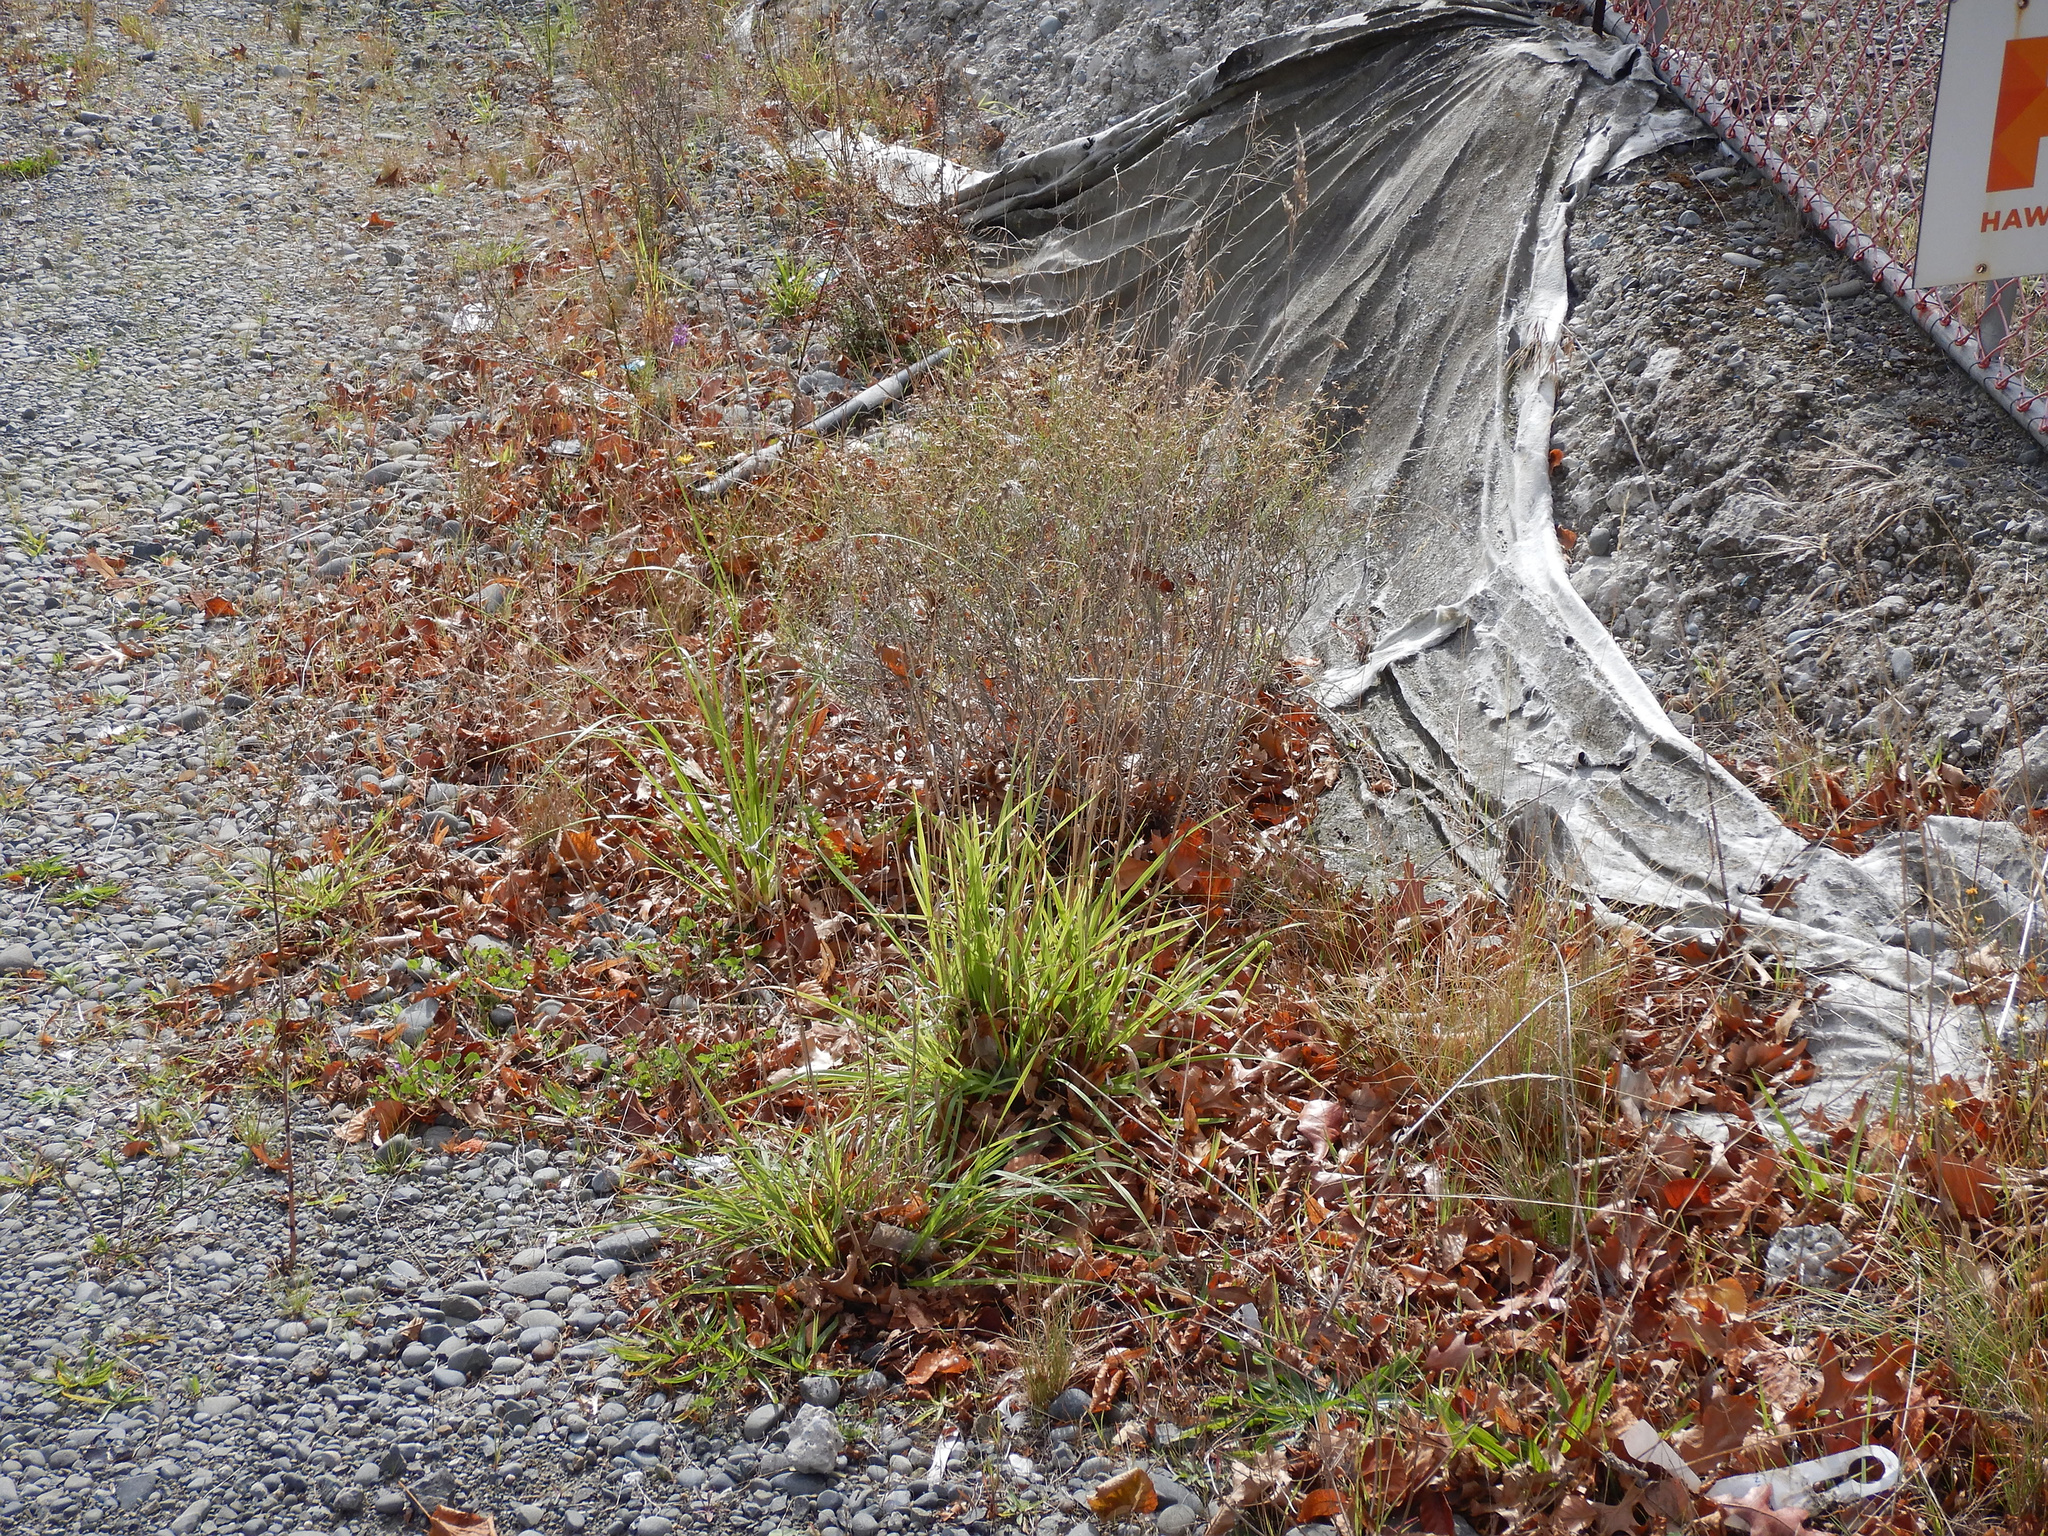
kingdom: Plantae
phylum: Tracheophyta
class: Magnoliopsida
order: Asterales
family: Asteraceae
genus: Senecio
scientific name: Senecio quadridentatus
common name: Cotton fireweed
